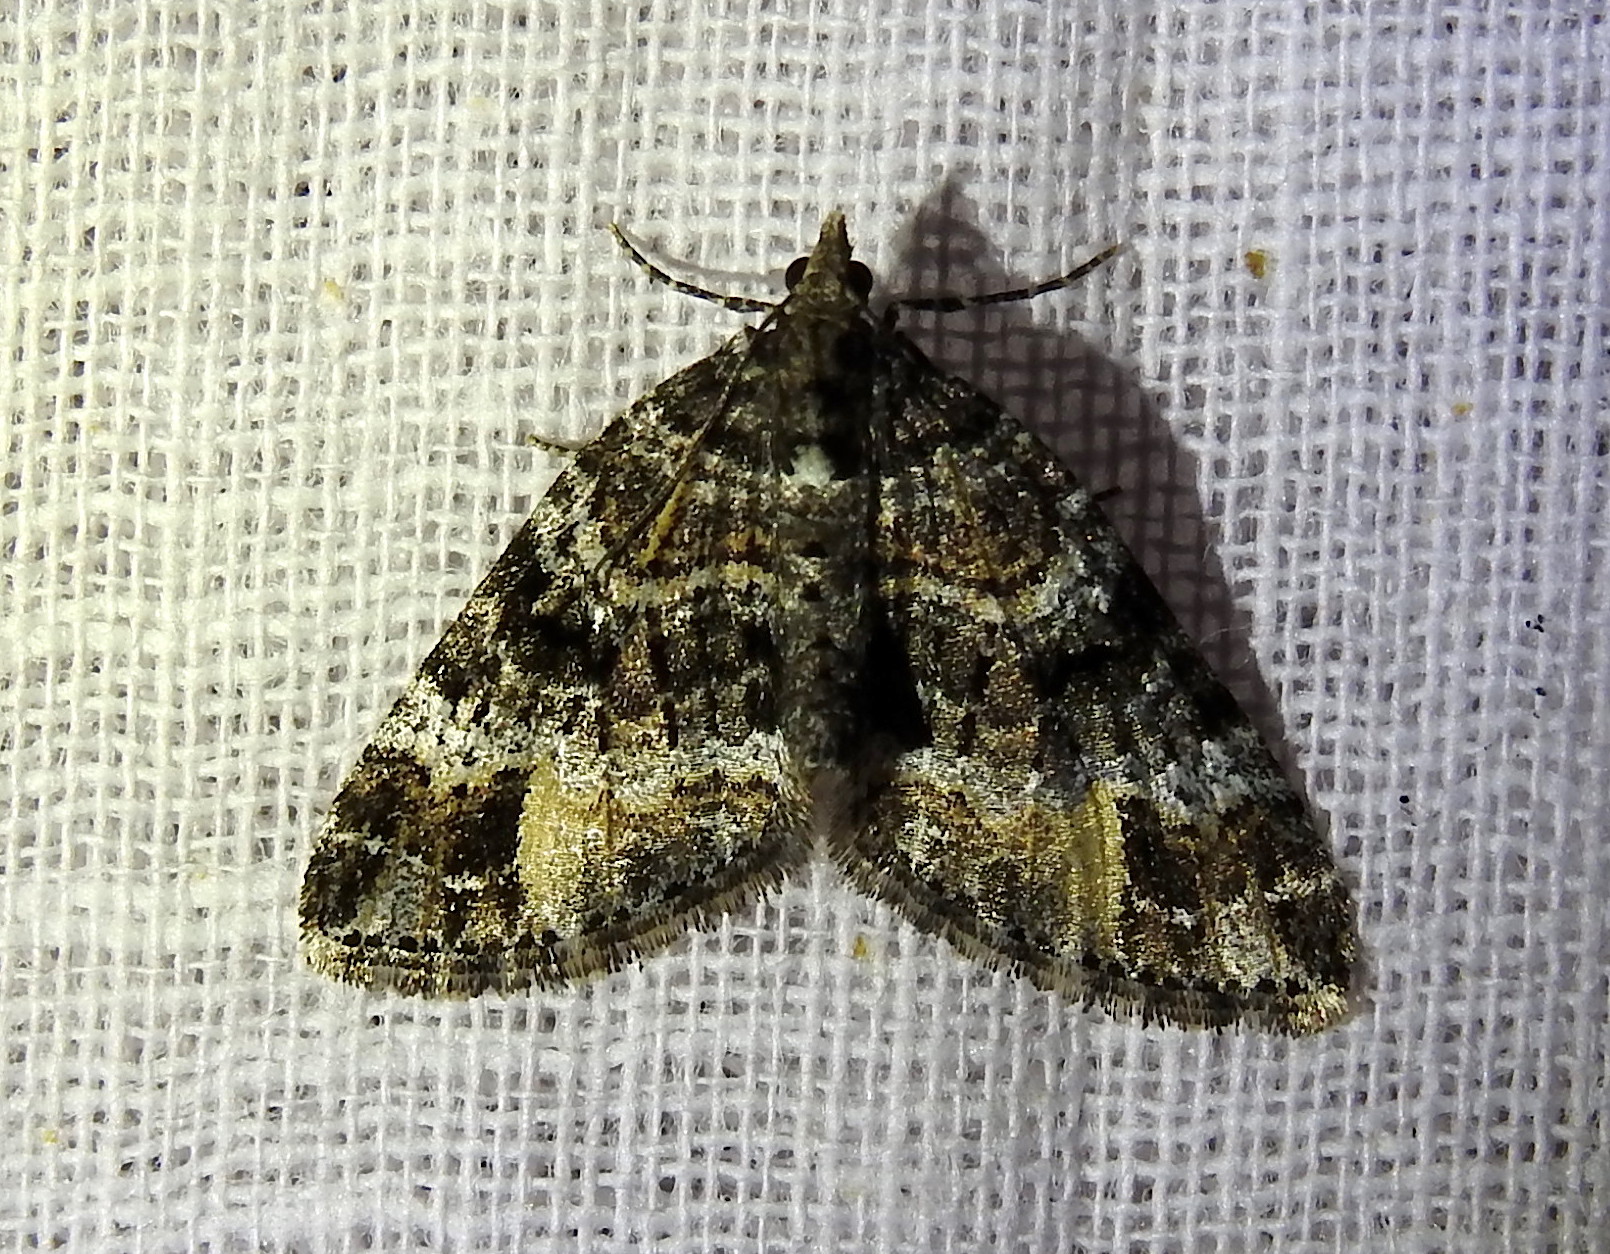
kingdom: Animalia
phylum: Arthropoda
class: Insecta
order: Lepidoptera
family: Geometridae
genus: Perizoma
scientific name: Perizoma constricta
